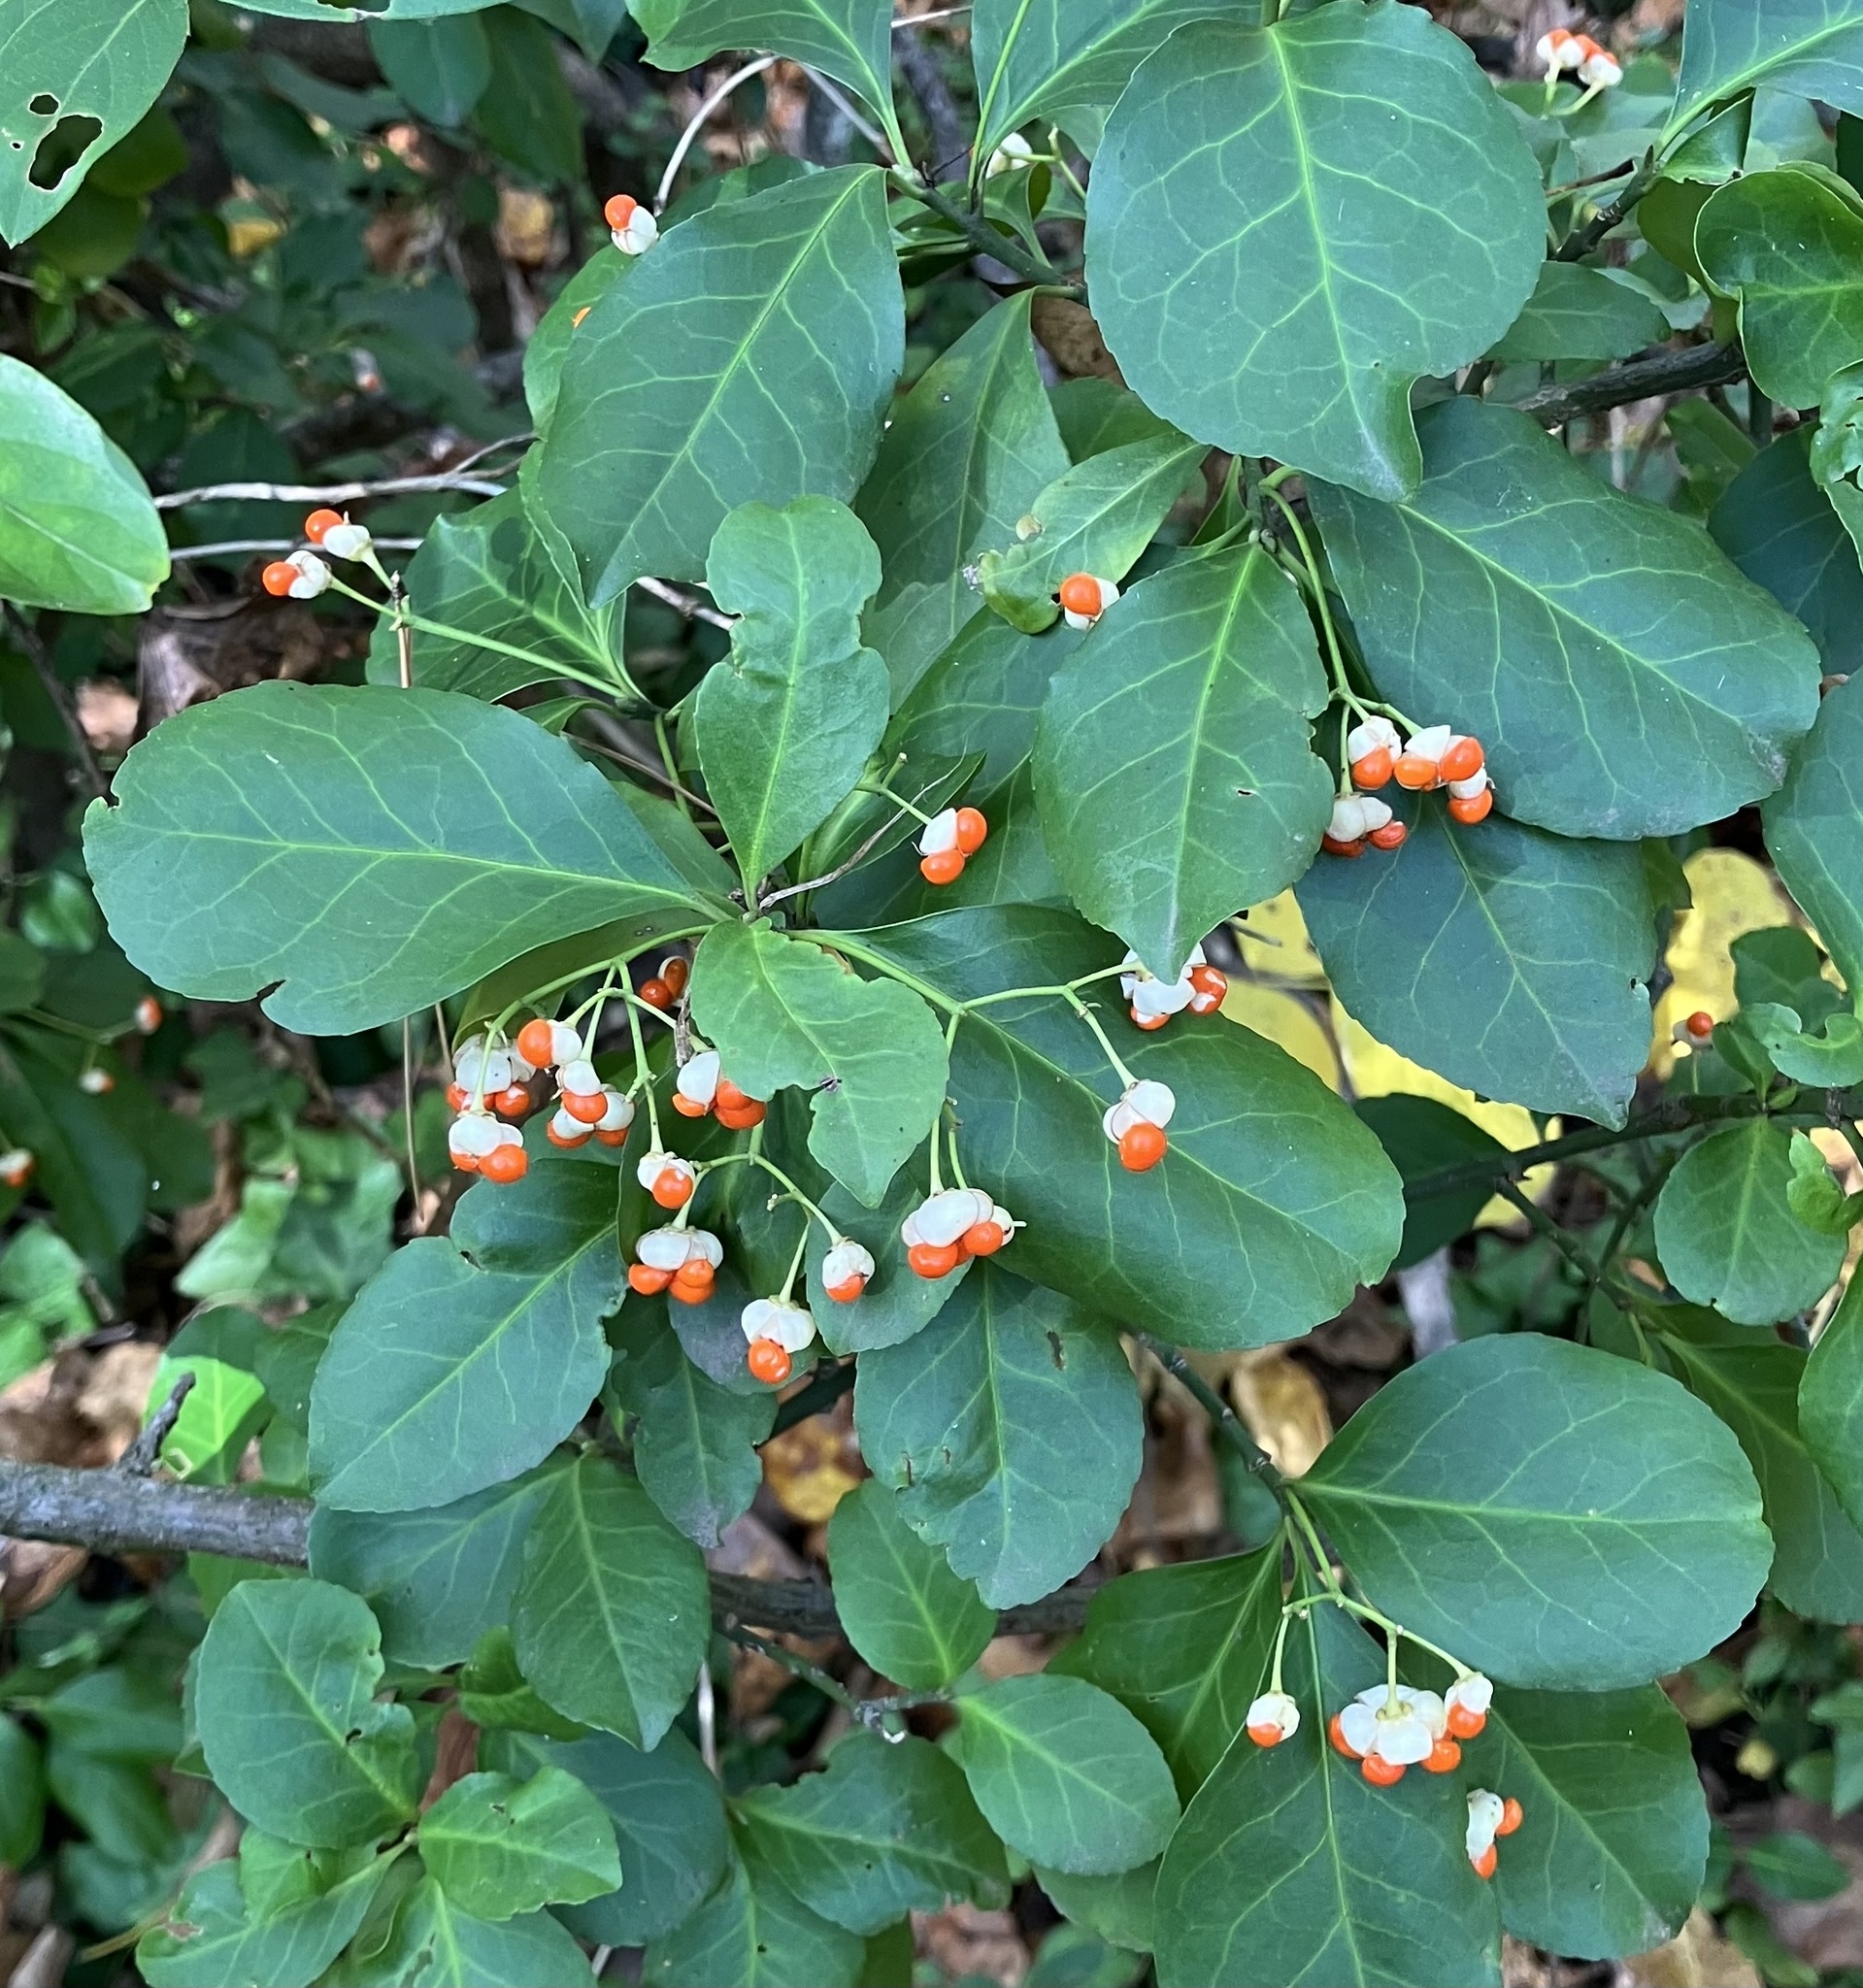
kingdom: Plantae
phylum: Tracheophyta
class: Magnoliopsida
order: Celastrales
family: Celastraceae
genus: Euonymus
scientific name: Euonymus fortunei
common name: Climbing euonymus
